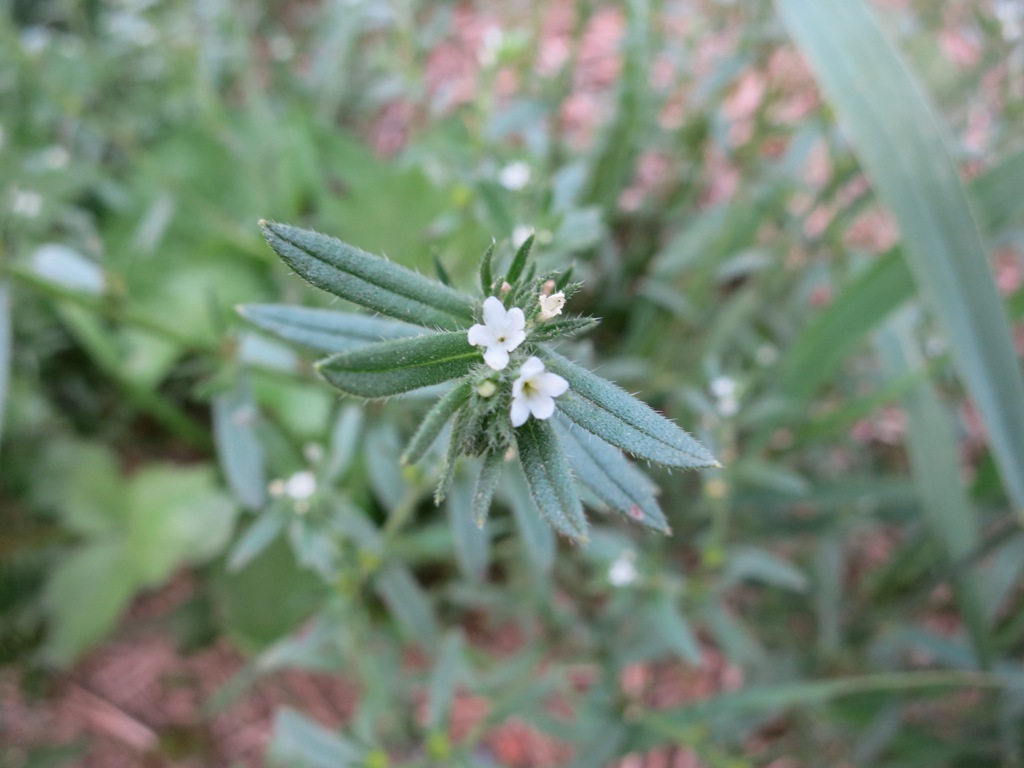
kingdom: Plantae
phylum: Tracheophyta
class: Magnoliopsida
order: Boraginales
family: Boraginaceae
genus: Buglossoides
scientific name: Buglossoides arvensis
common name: Corn gromwell
